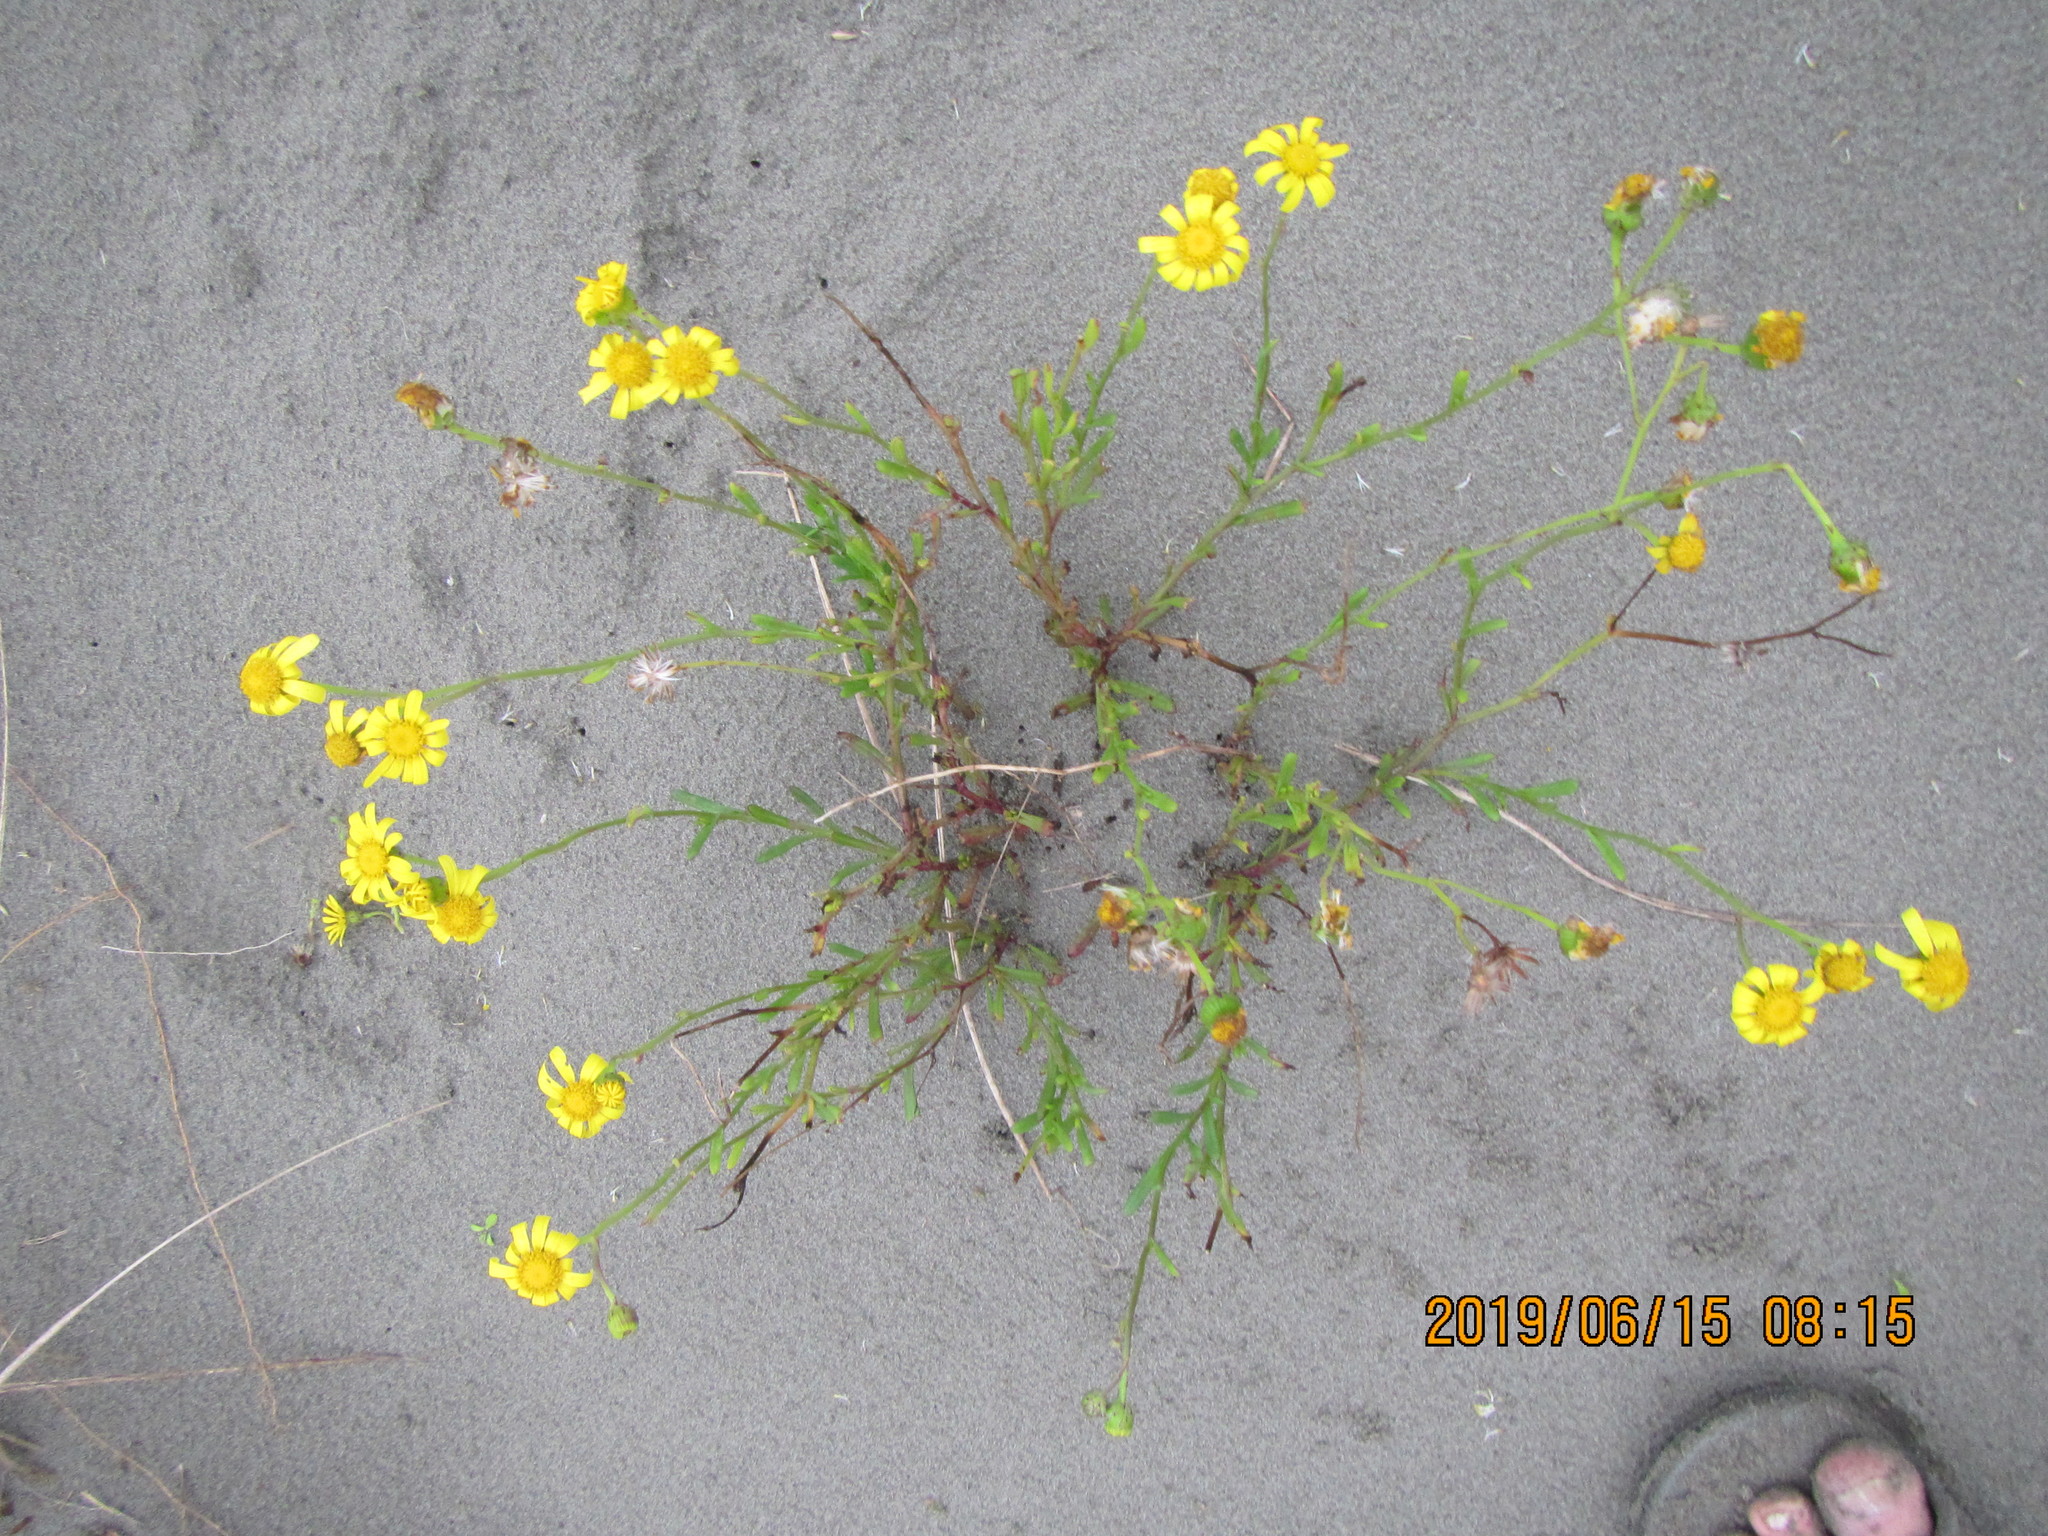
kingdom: Plantae
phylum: Tracheophyta
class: Magnoliopsida
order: Asterales
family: Asteraceae
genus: Senecio
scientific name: Senecio skirrhodon
